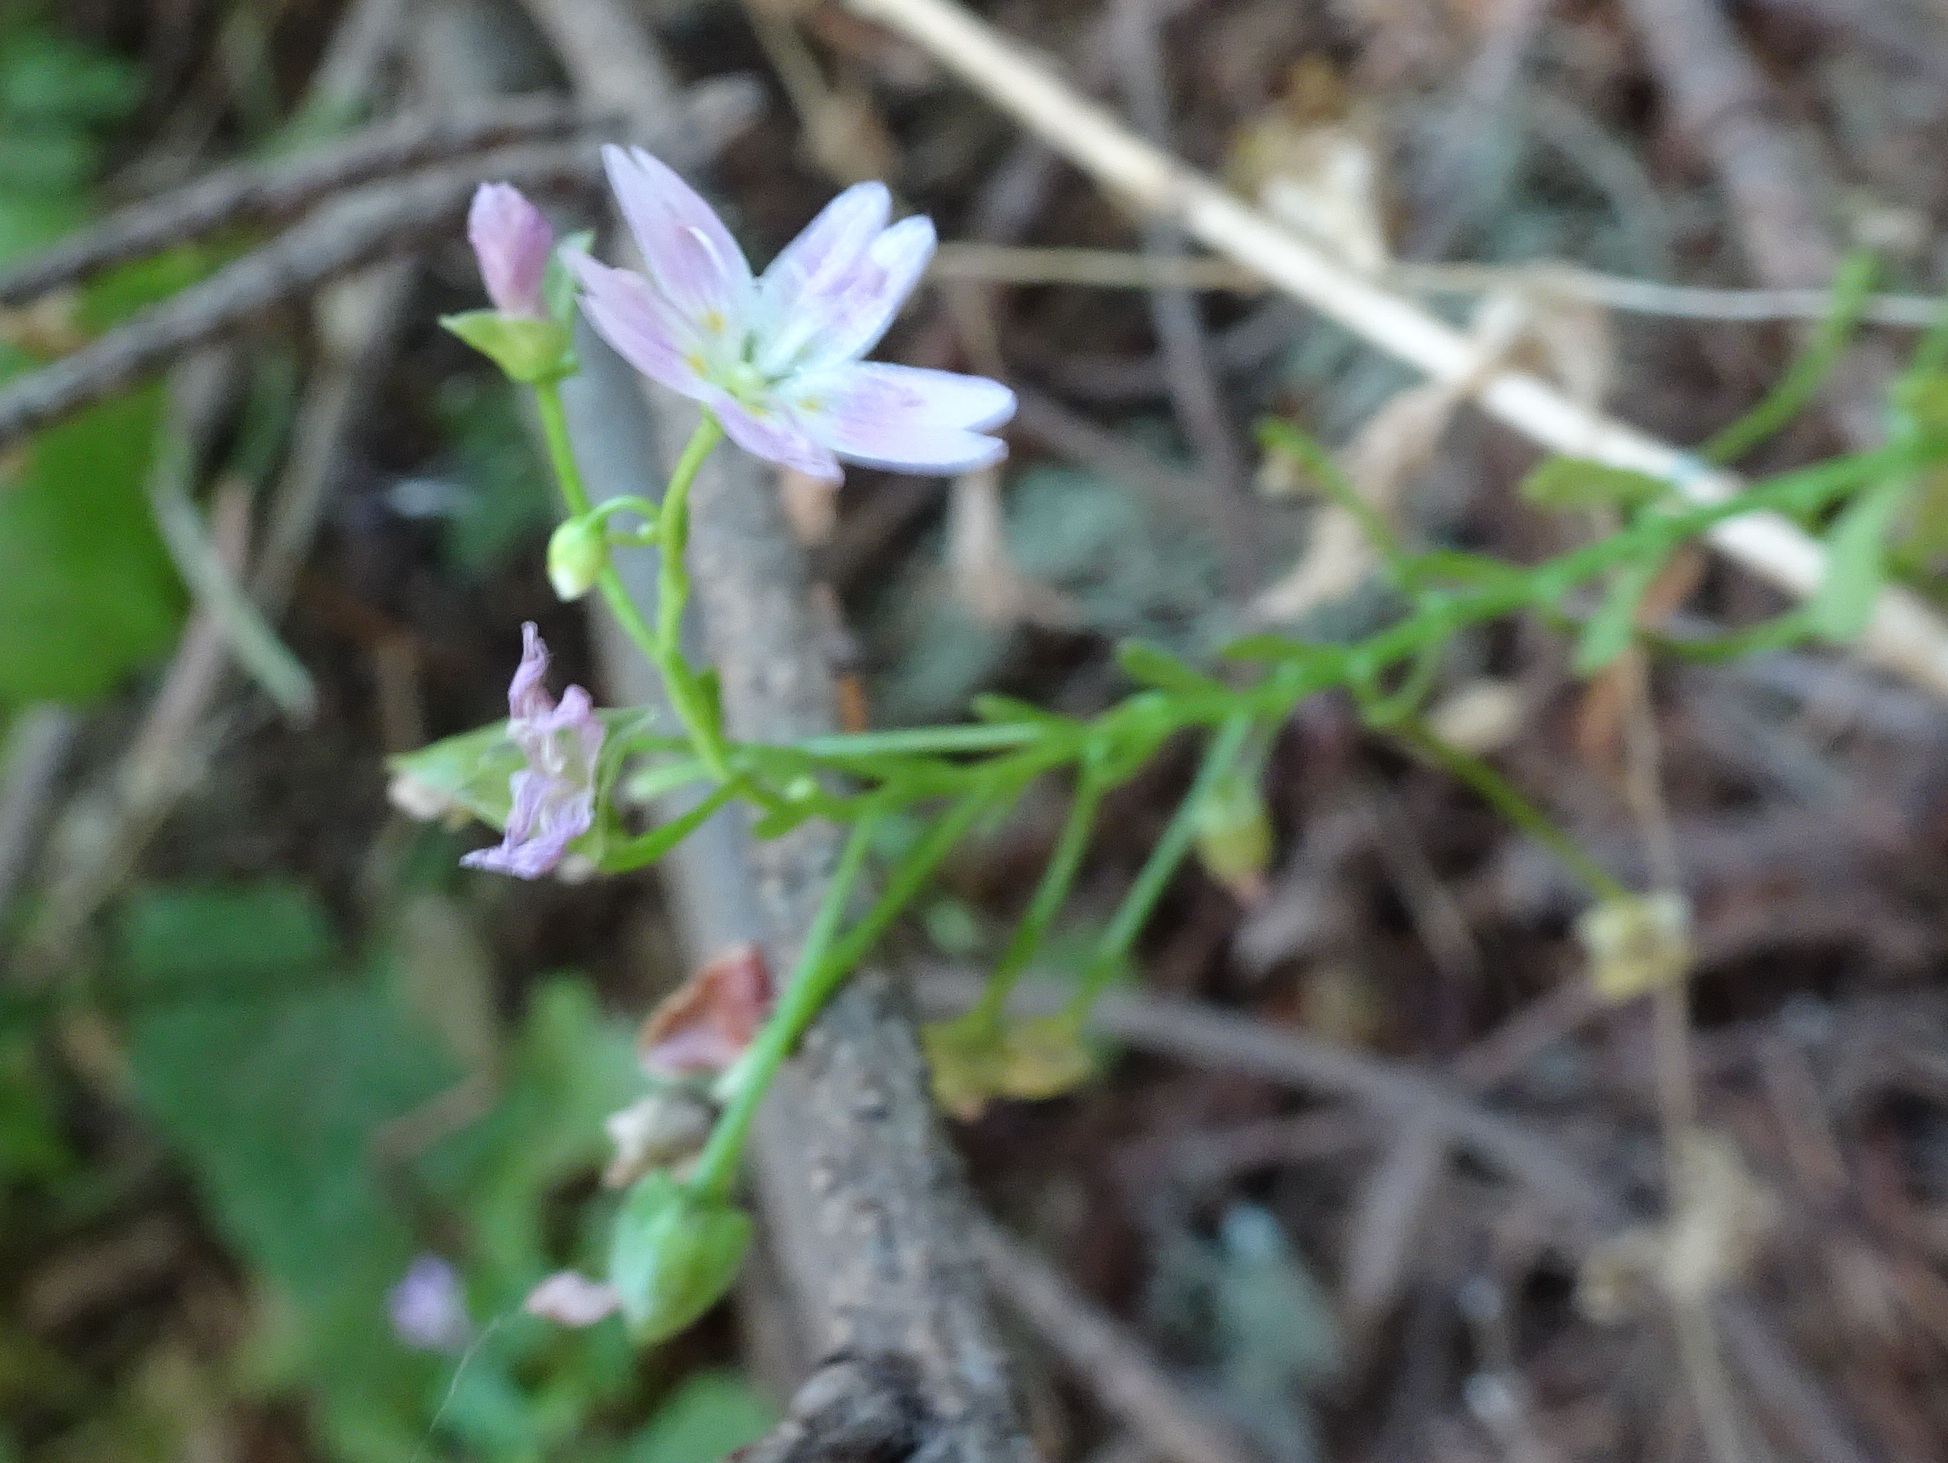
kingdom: Plantae
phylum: Tracheophyta
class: Magnoliopsida
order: Caryophyllales
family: Montiaceae
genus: Claytonia
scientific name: Claytonia sibirica
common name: Pink purslane
